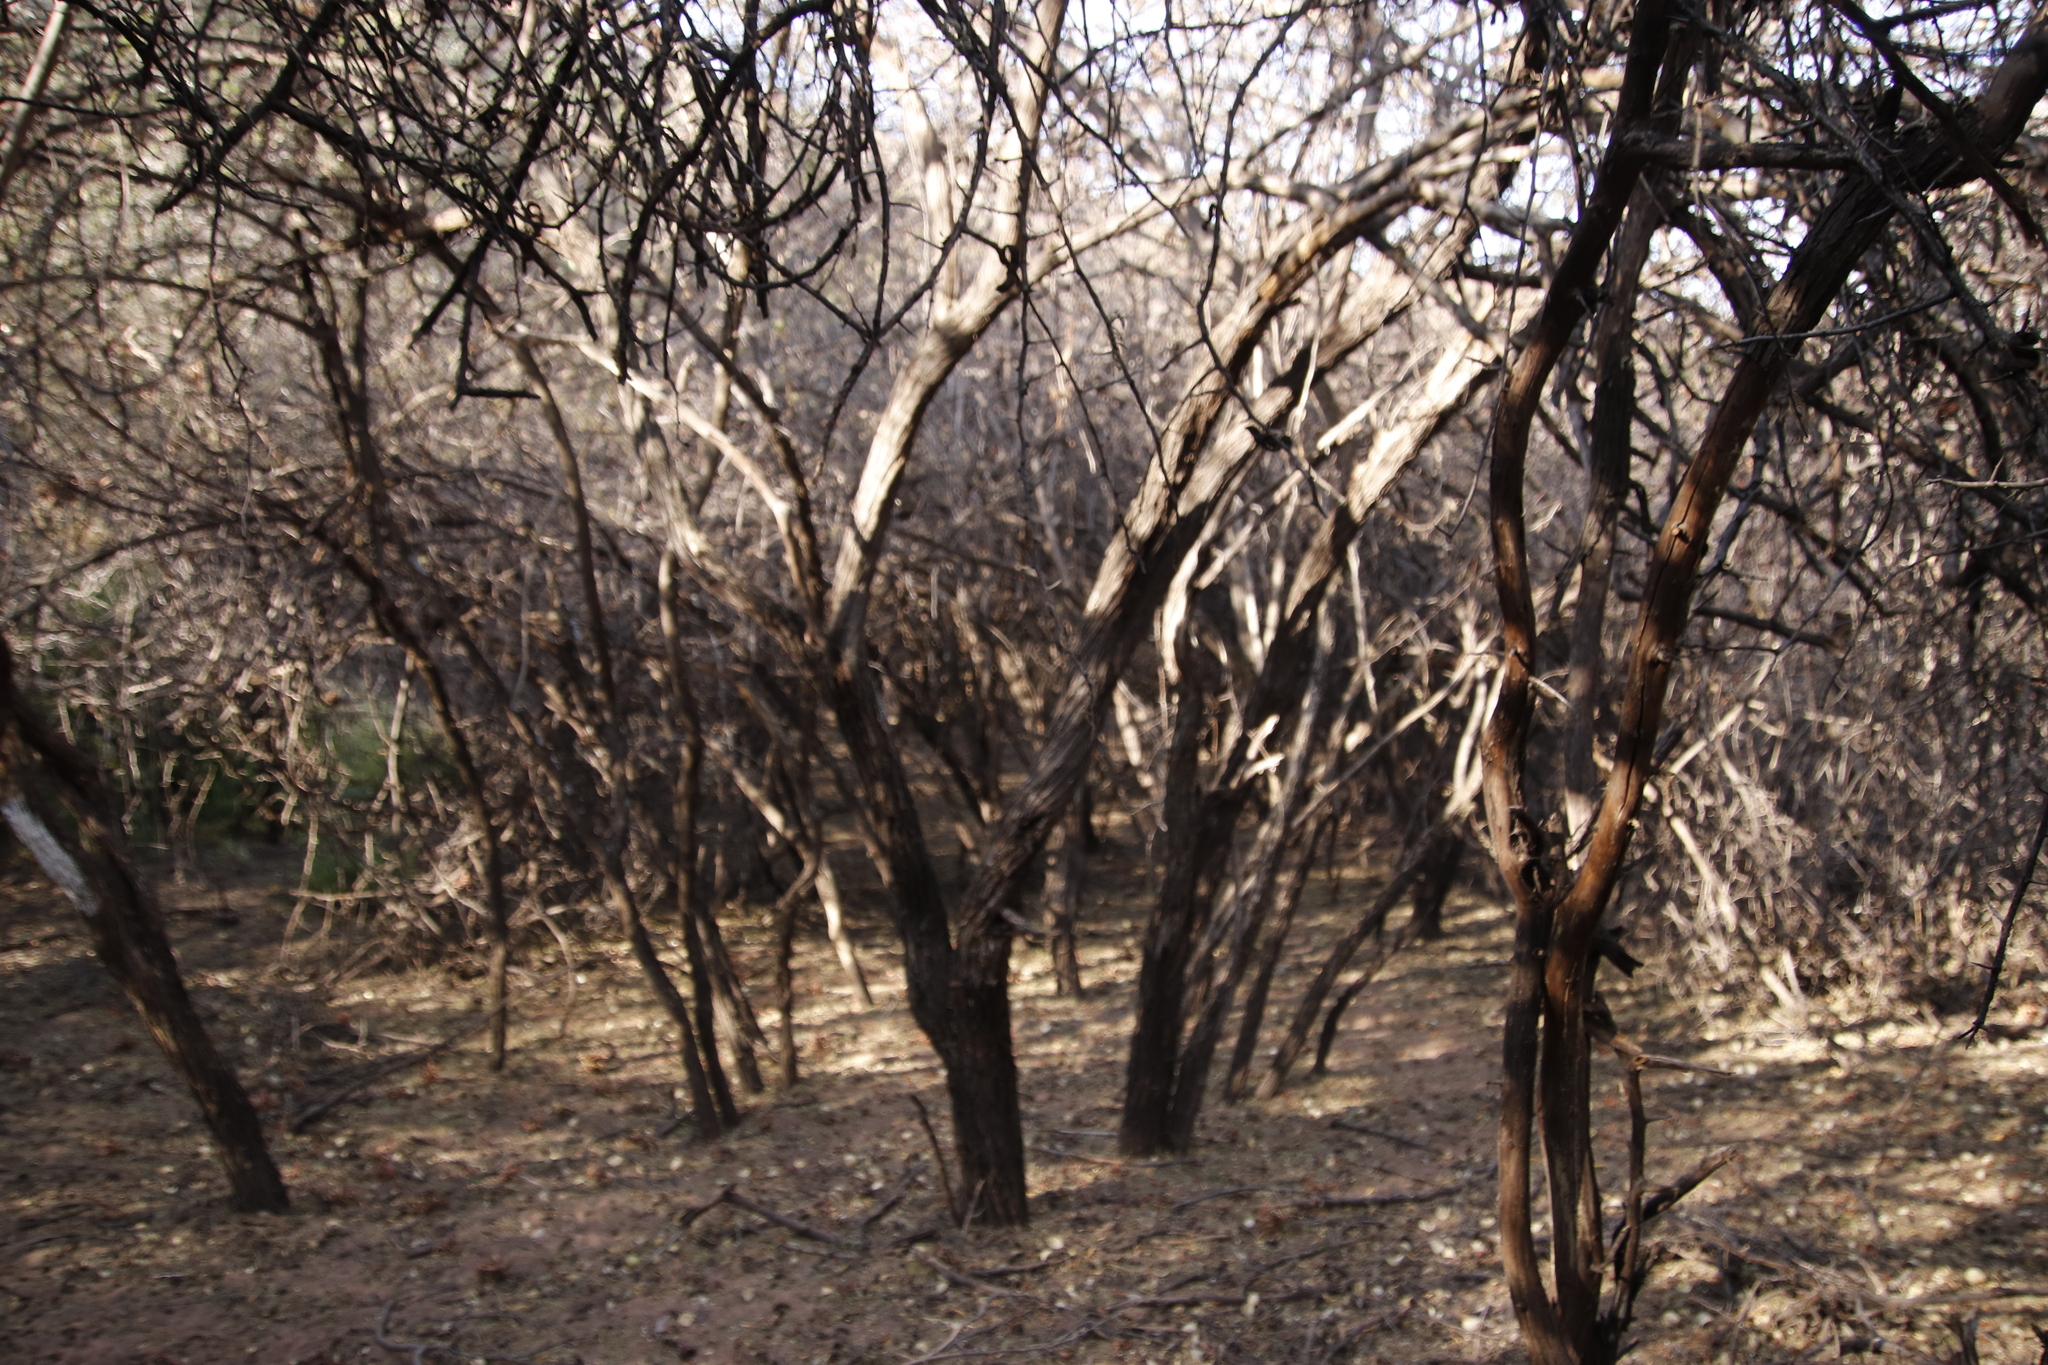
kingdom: Plantae
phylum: Tracheophyta
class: Magnoliopsida
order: Fabales
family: Fabaceae
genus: Dichrostachys
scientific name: Dichrostachys cinerea
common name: Sicklebush
